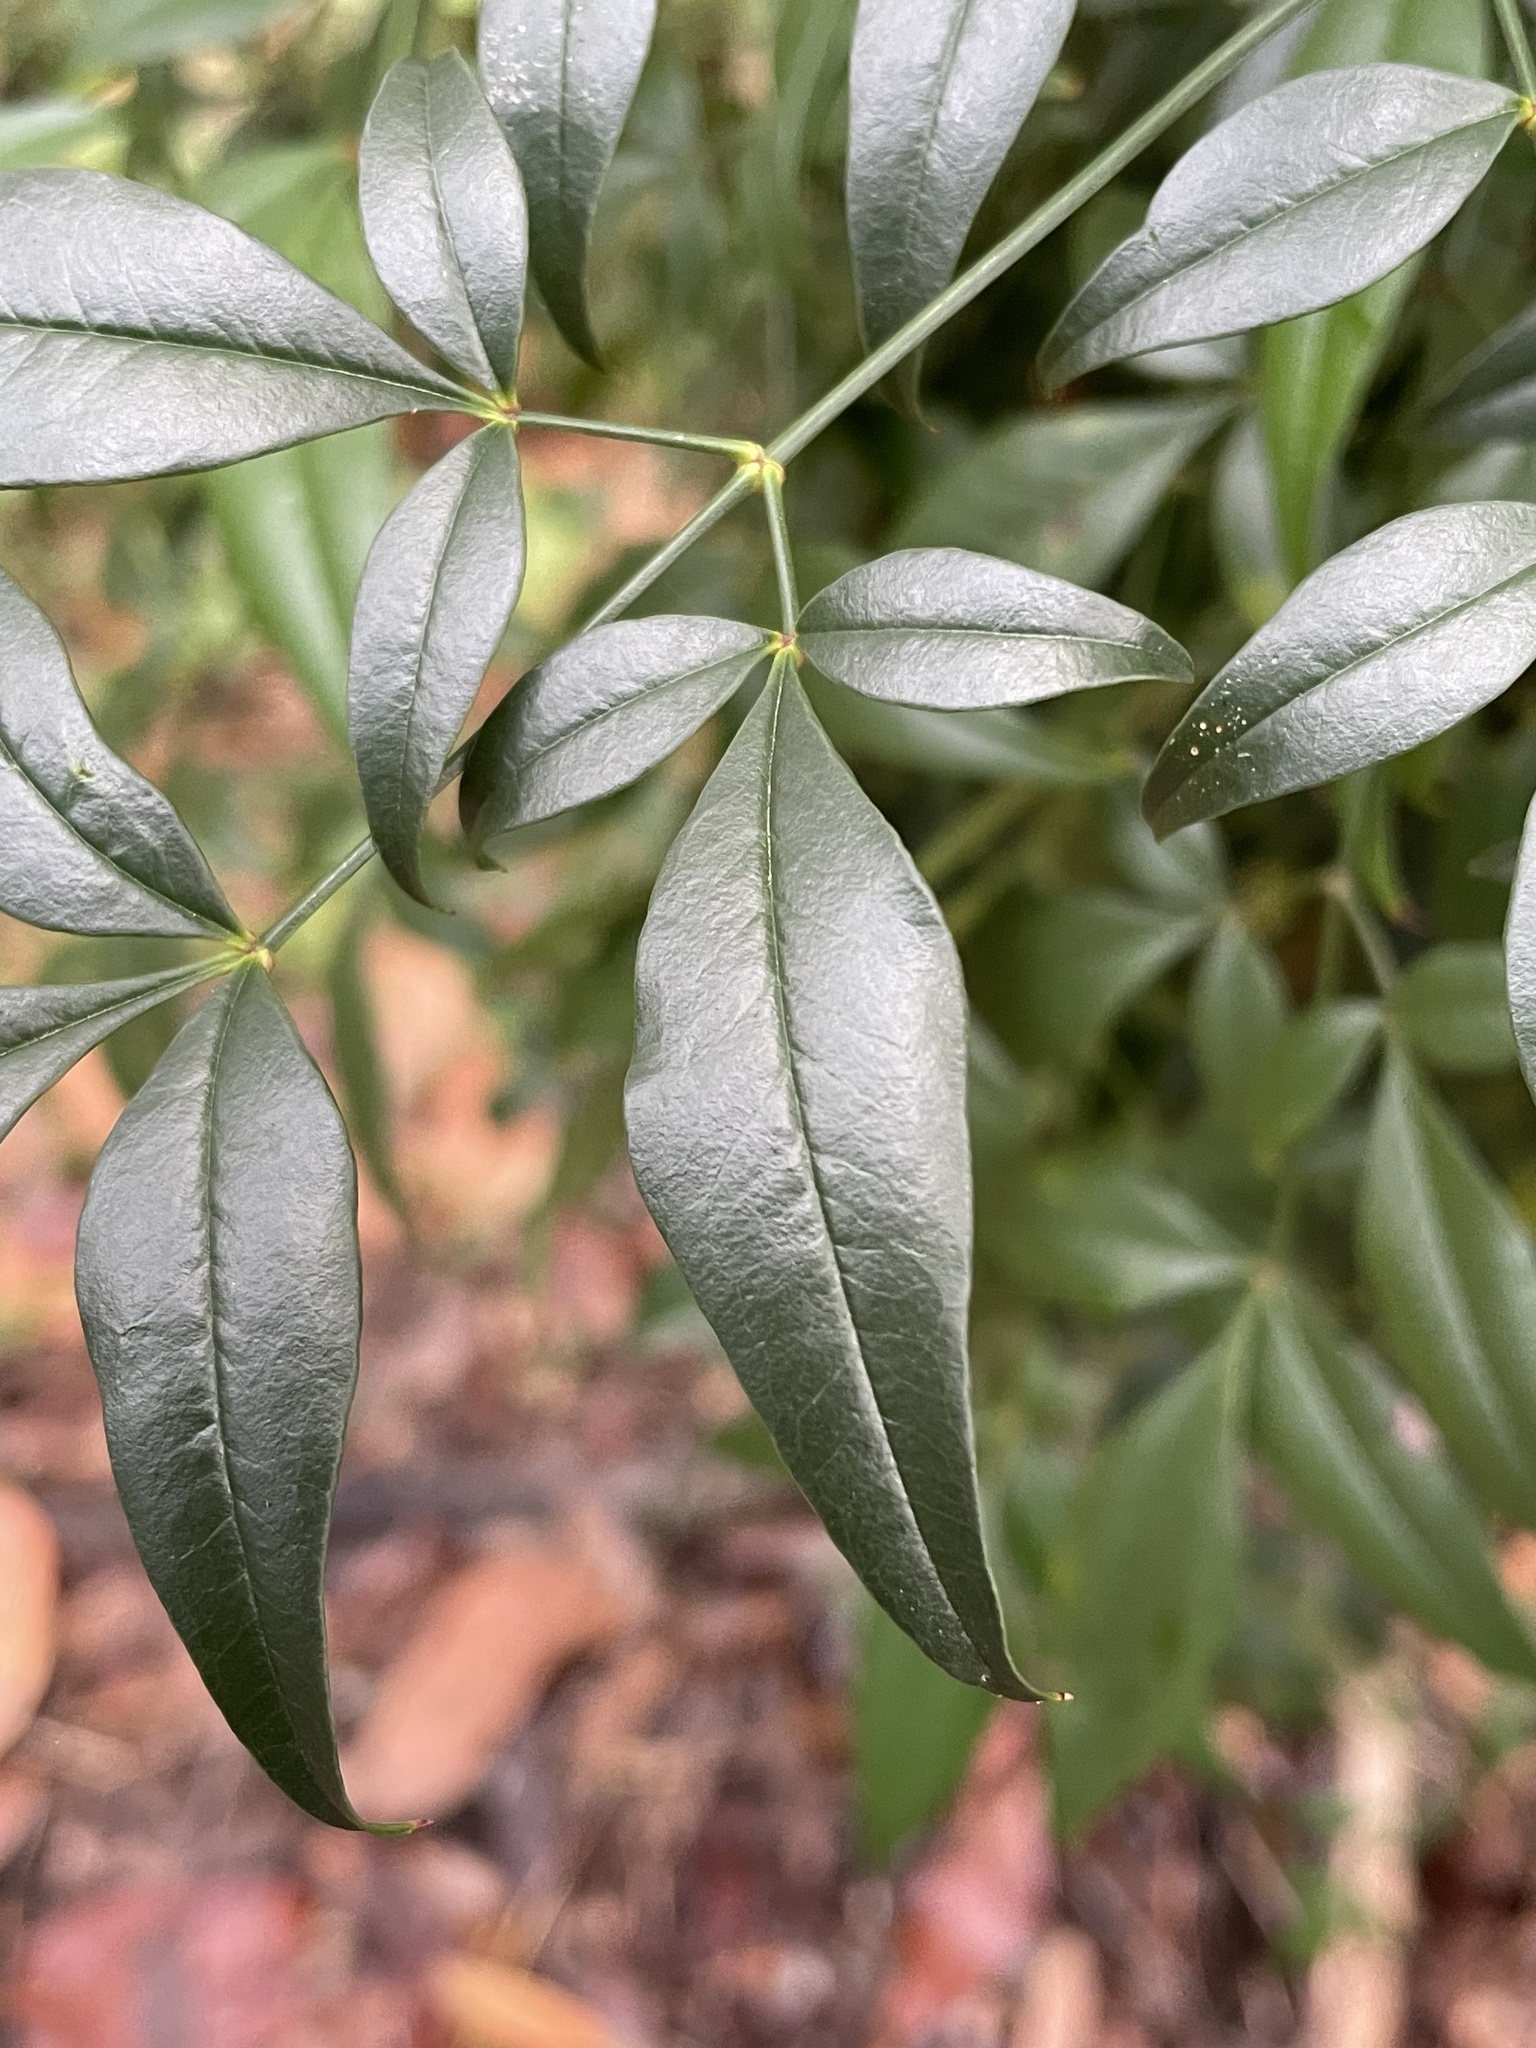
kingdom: Plantae
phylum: Tracheophyta
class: Magnoliopsida
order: Ranunculales
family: Berberidaceae
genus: Nandina
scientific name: Nandina domestica
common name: Sacred bamboo
